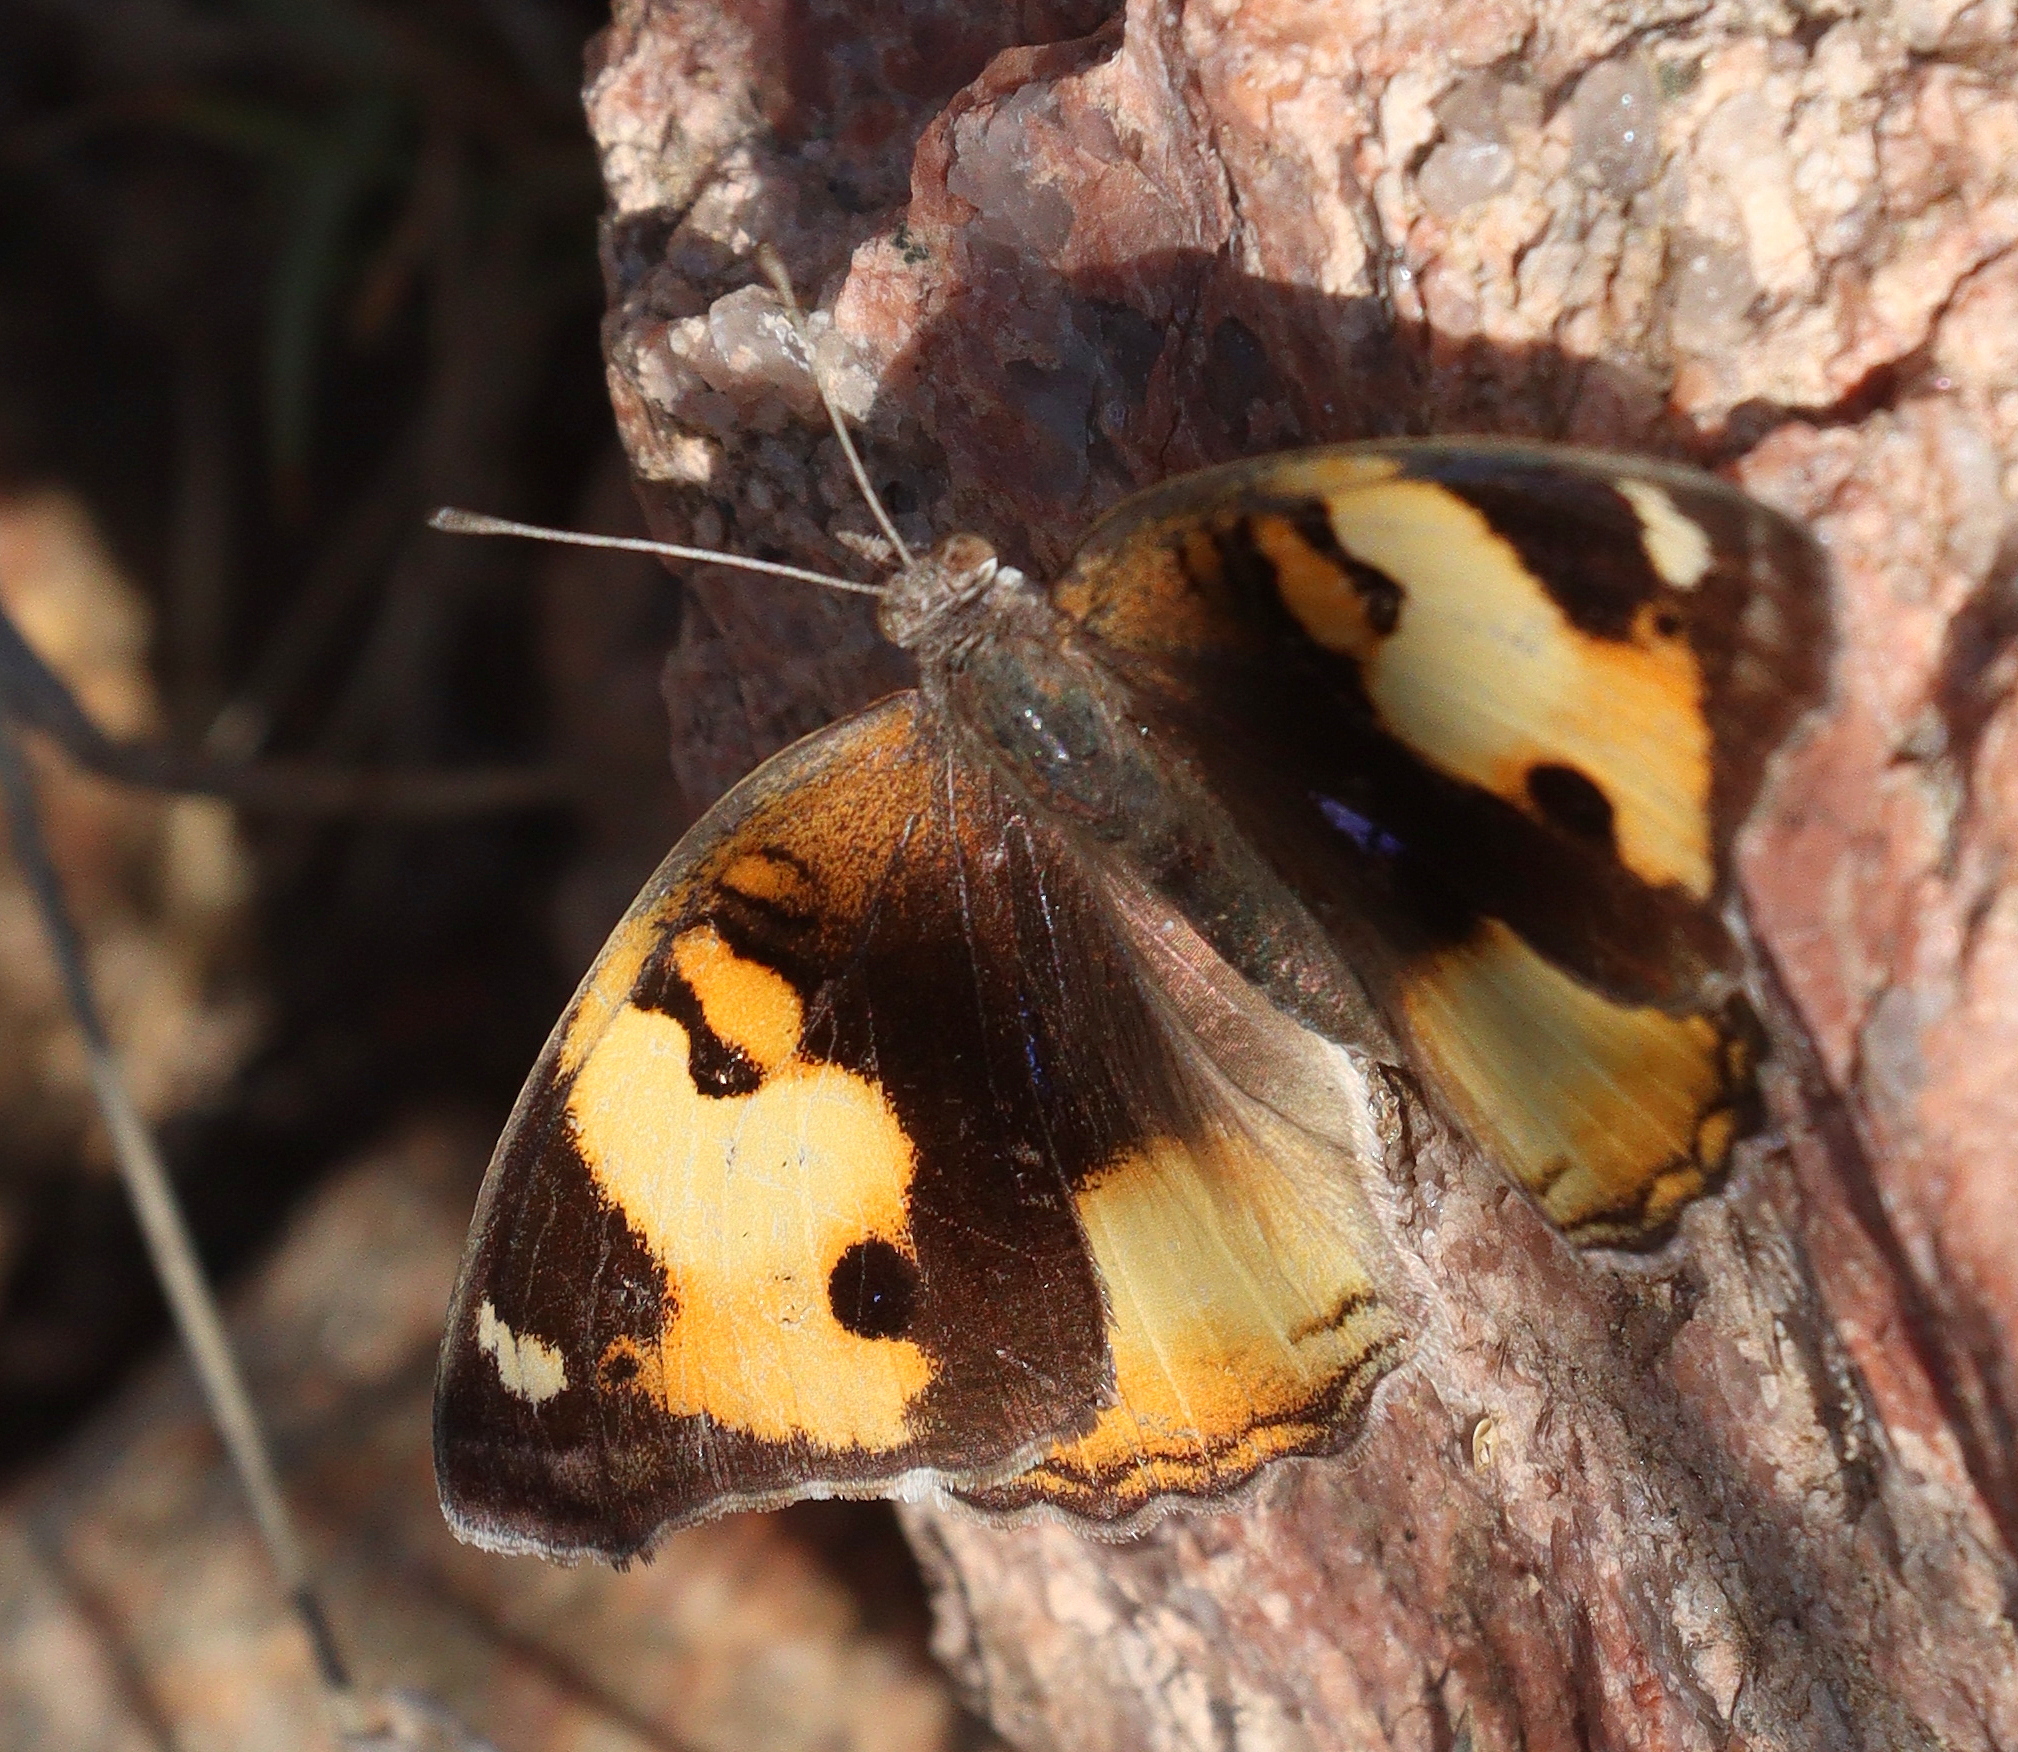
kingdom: Animalia
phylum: Arthropoda
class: Insecta
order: Lepidoptera
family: Nymphalidae
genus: Junonia
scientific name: Junonia hierta
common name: Yellow pansy
